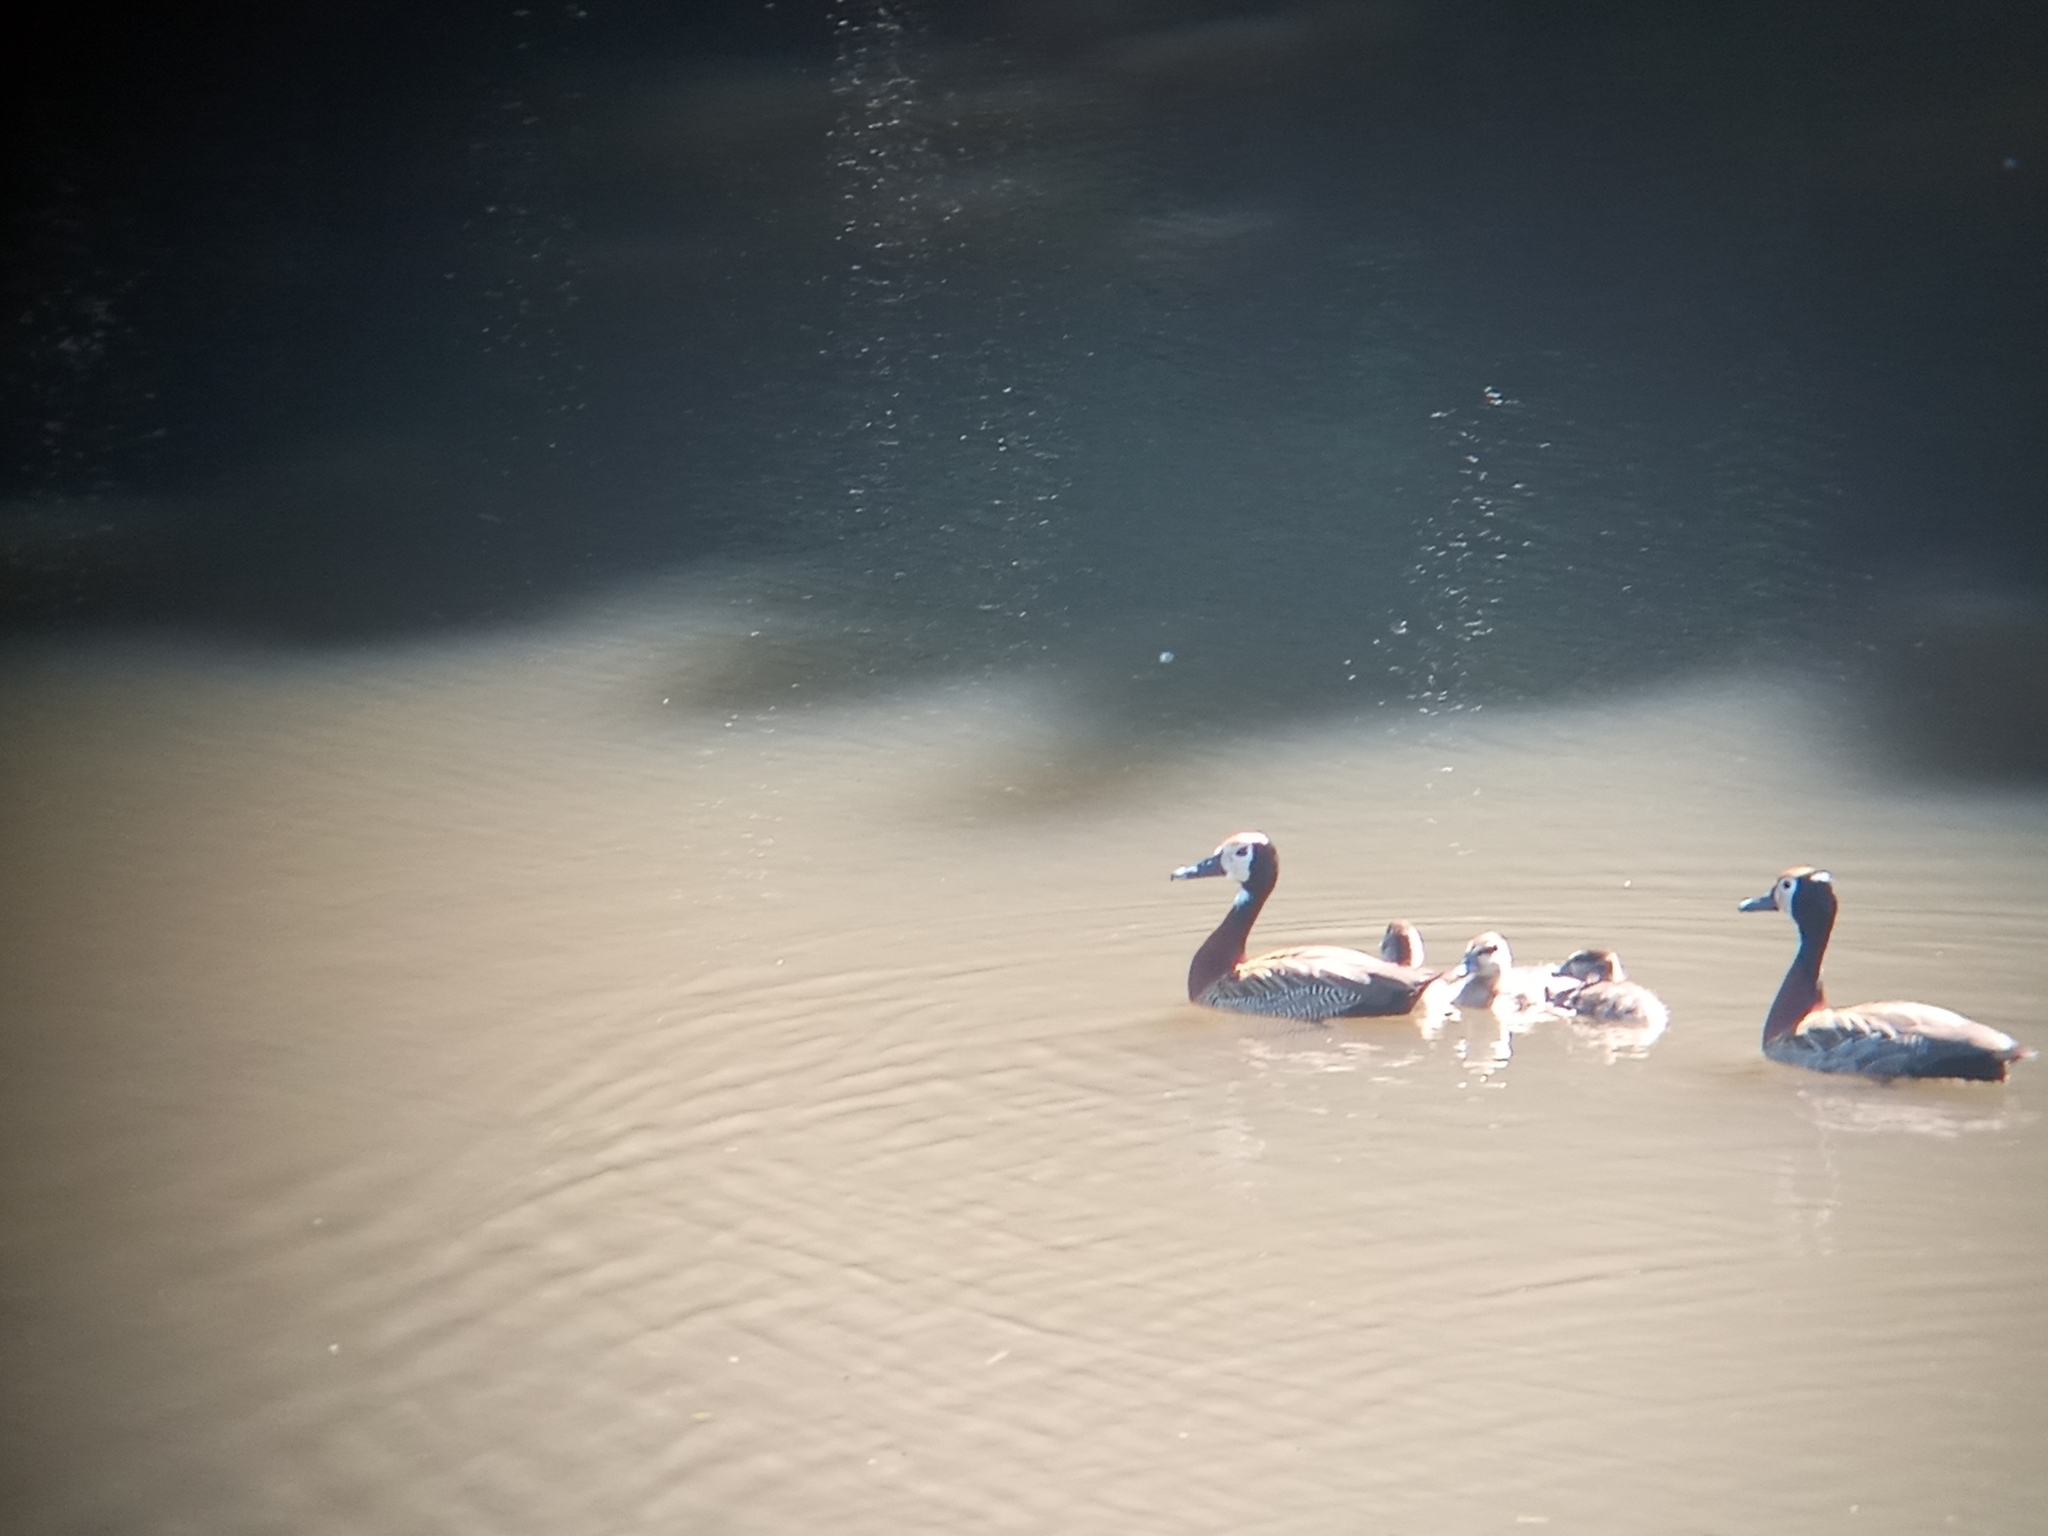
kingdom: Animalia
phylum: Chordata
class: Aves
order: Anseriformes
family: Anatidae
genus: Dendrocygna
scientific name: Dendrocygna viduata
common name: White-faced whistling duck
